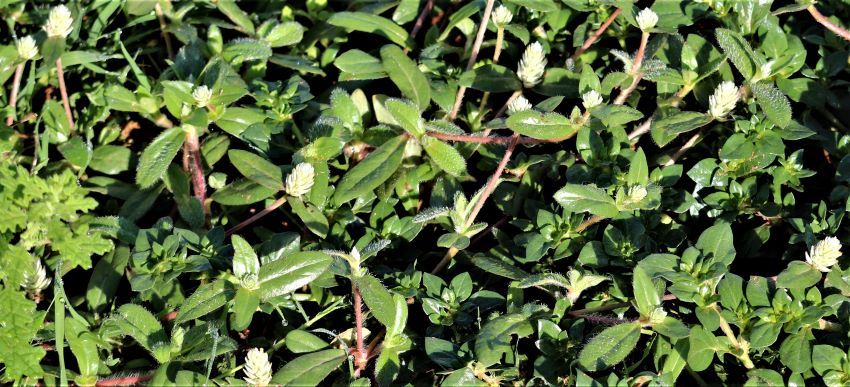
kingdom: Plantae
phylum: Tracheophyta
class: Magnoliopsida
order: Caryophyllales
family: Amaranthaceae
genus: Gomphrena
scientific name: Gomphrena celosioides
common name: Gomphrena-weed
